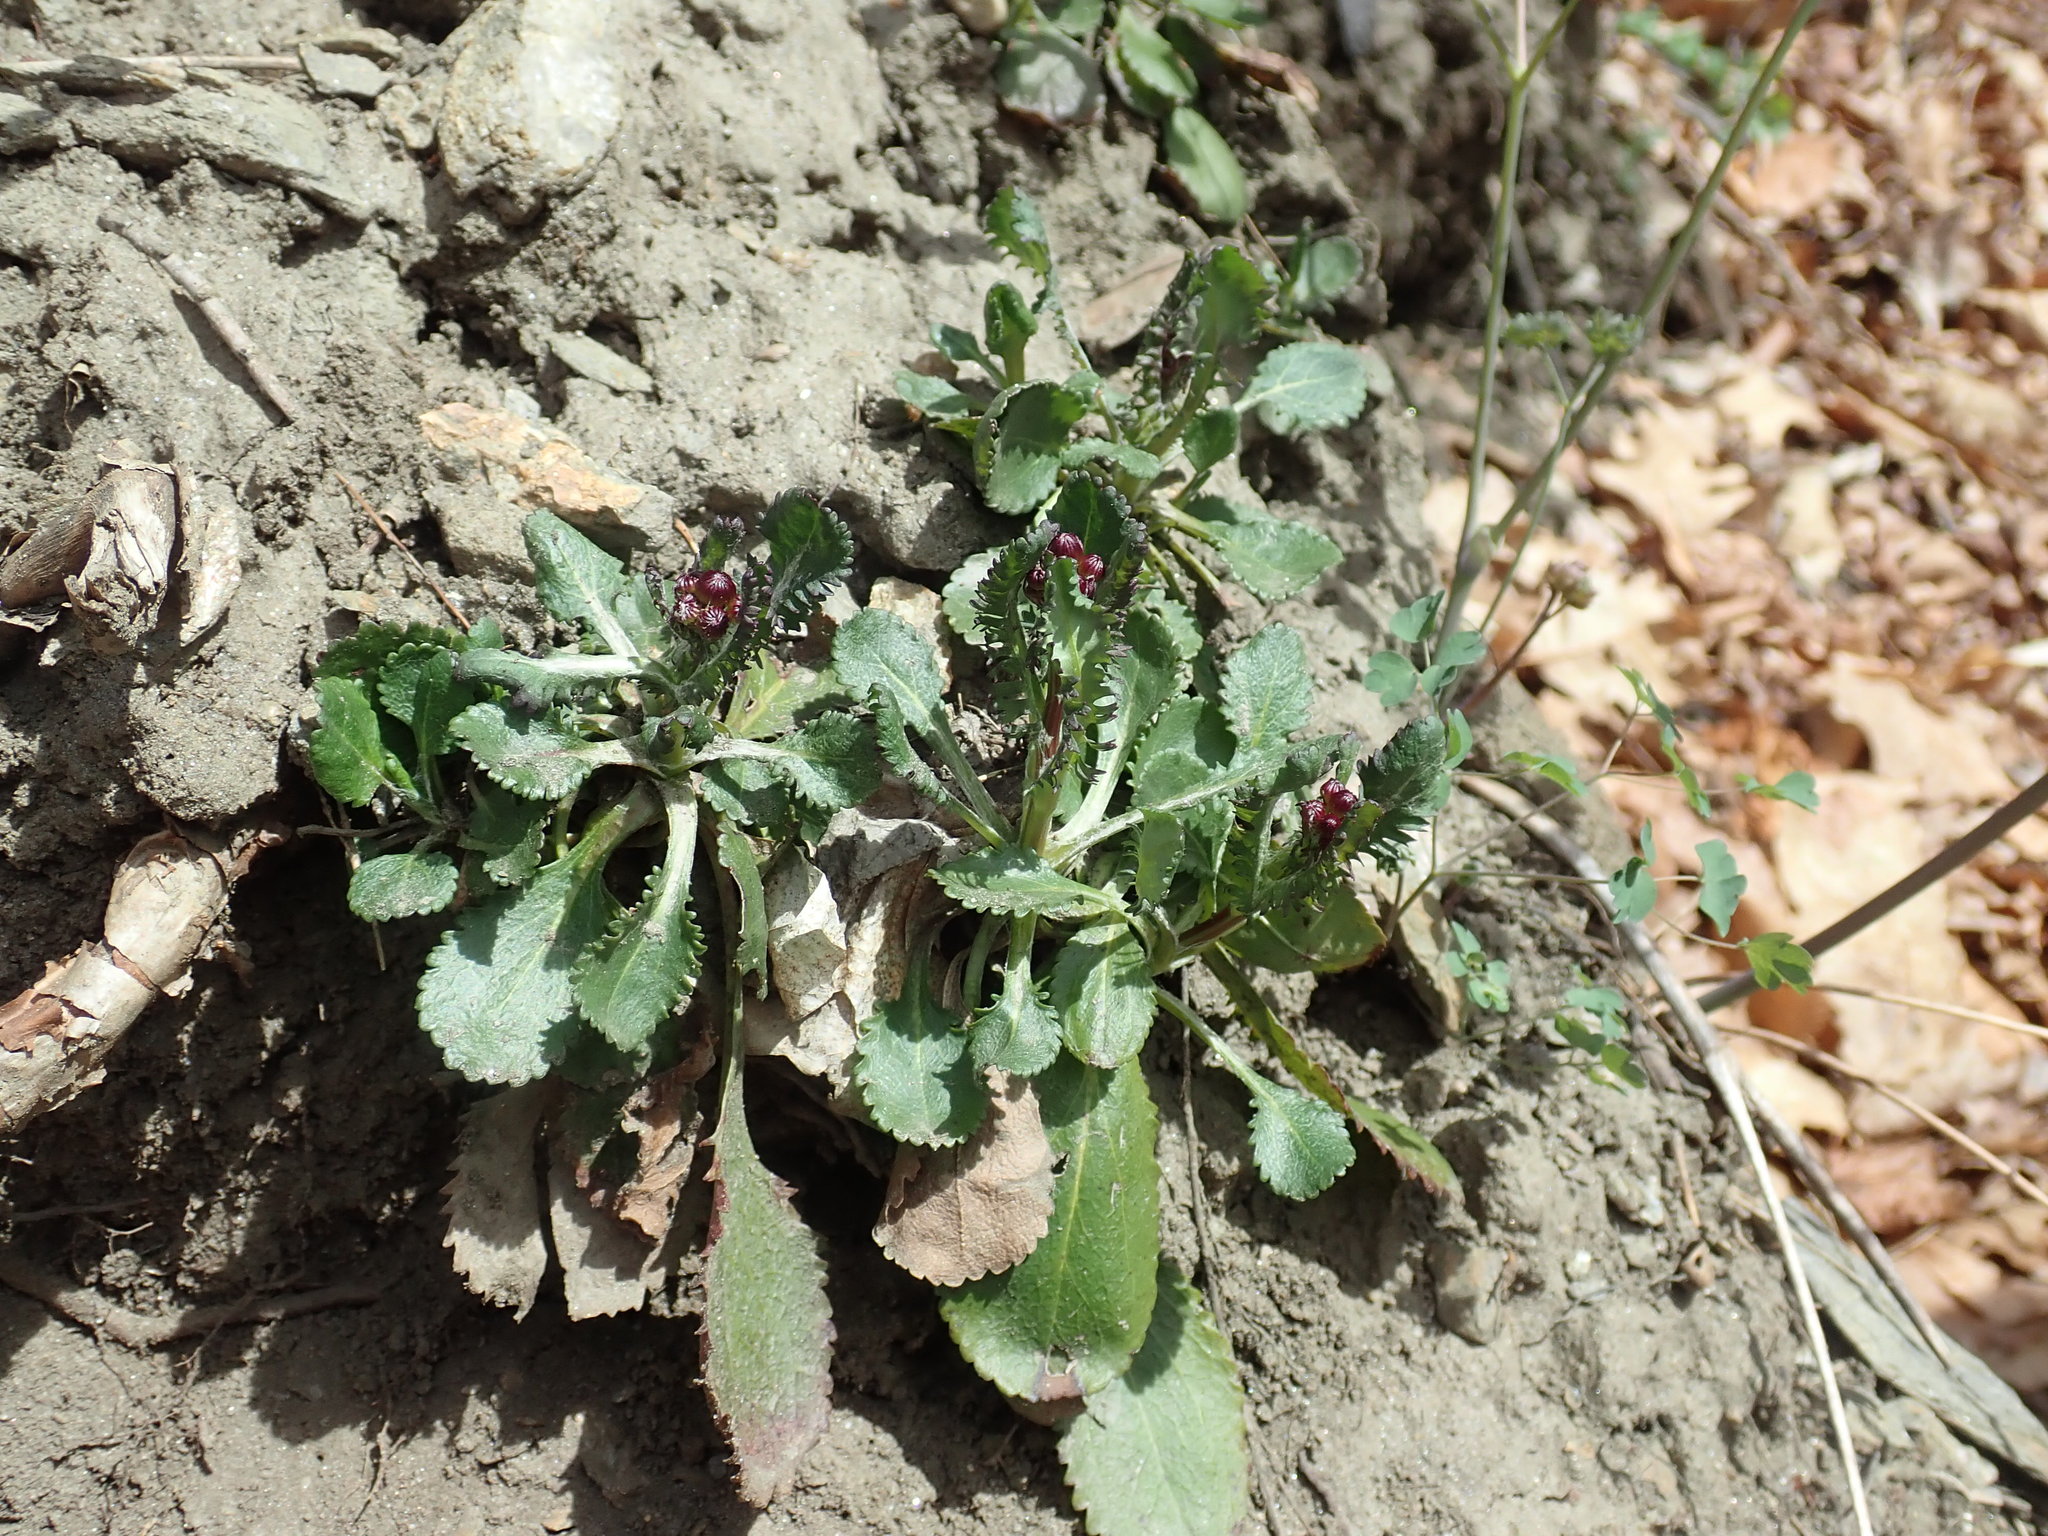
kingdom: Plantae
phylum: Tracheophyta
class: Magnoliopsida
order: Asterales
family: Asteraceae
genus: Packera
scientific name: Packera obovata
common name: Round-leaf ragwort
